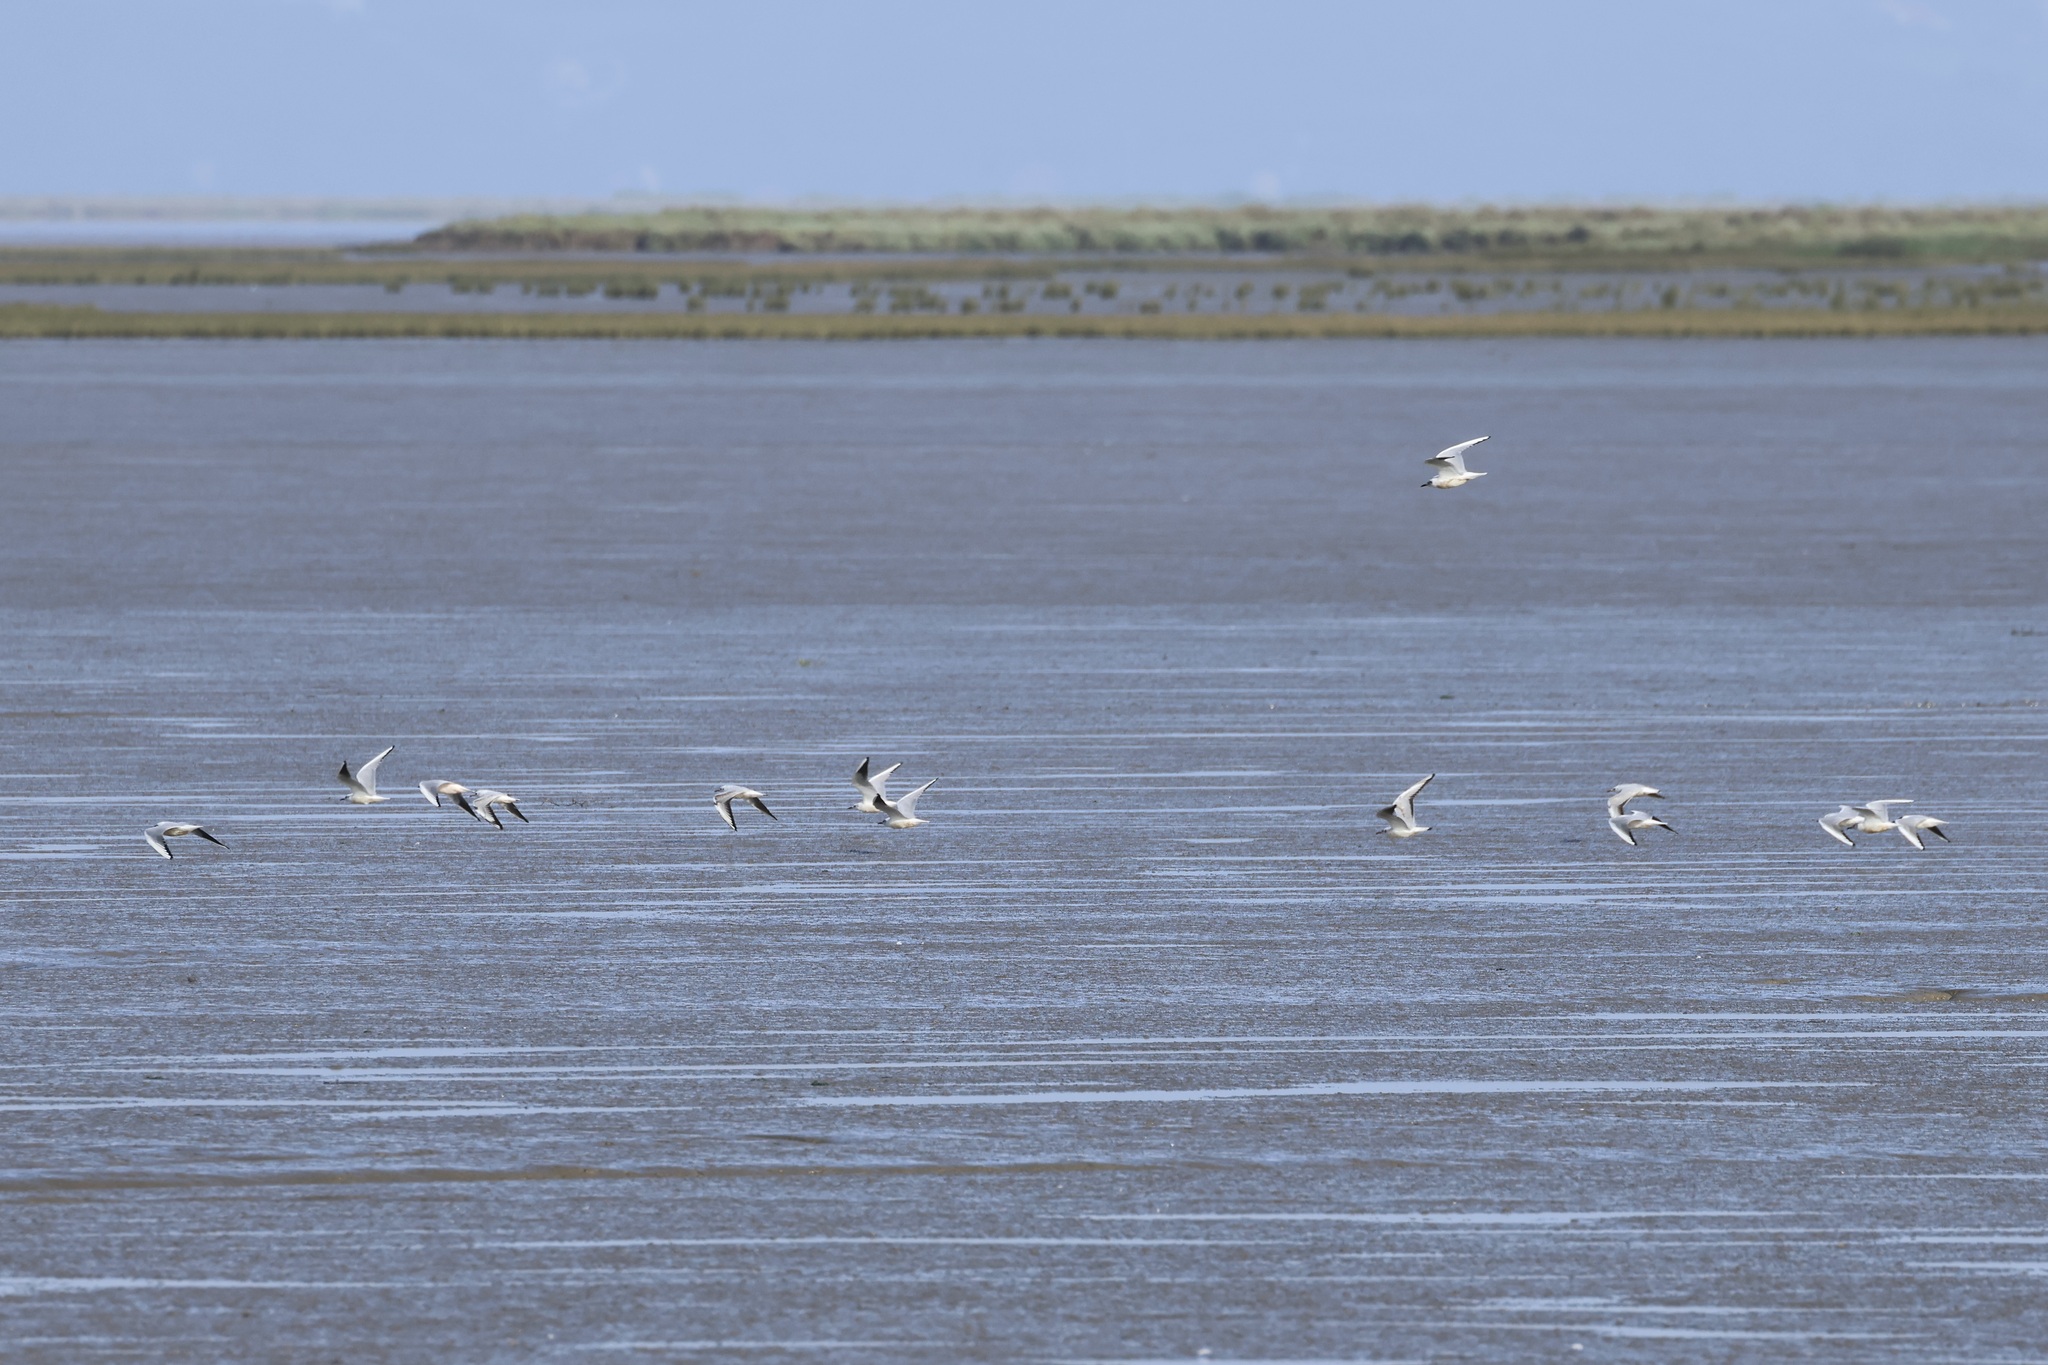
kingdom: Animalia
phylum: Chordata
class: Aves
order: Charadriiformes
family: Laridae
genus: Chroicocephalus
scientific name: Chroicocephalus ridibundus
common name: Black-headed gull
